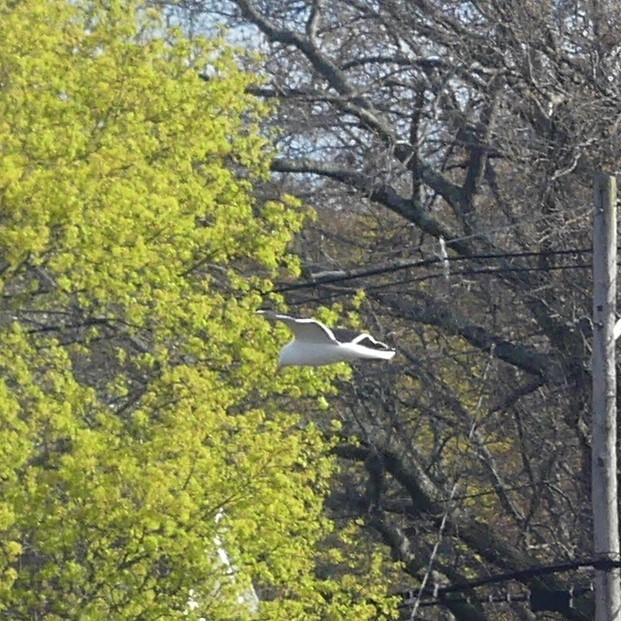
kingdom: Animalia
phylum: Chordata
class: Aves
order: Charadriiformes
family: Laridae
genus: Larus
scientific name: Larus marinus
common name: Great black-backed gull
